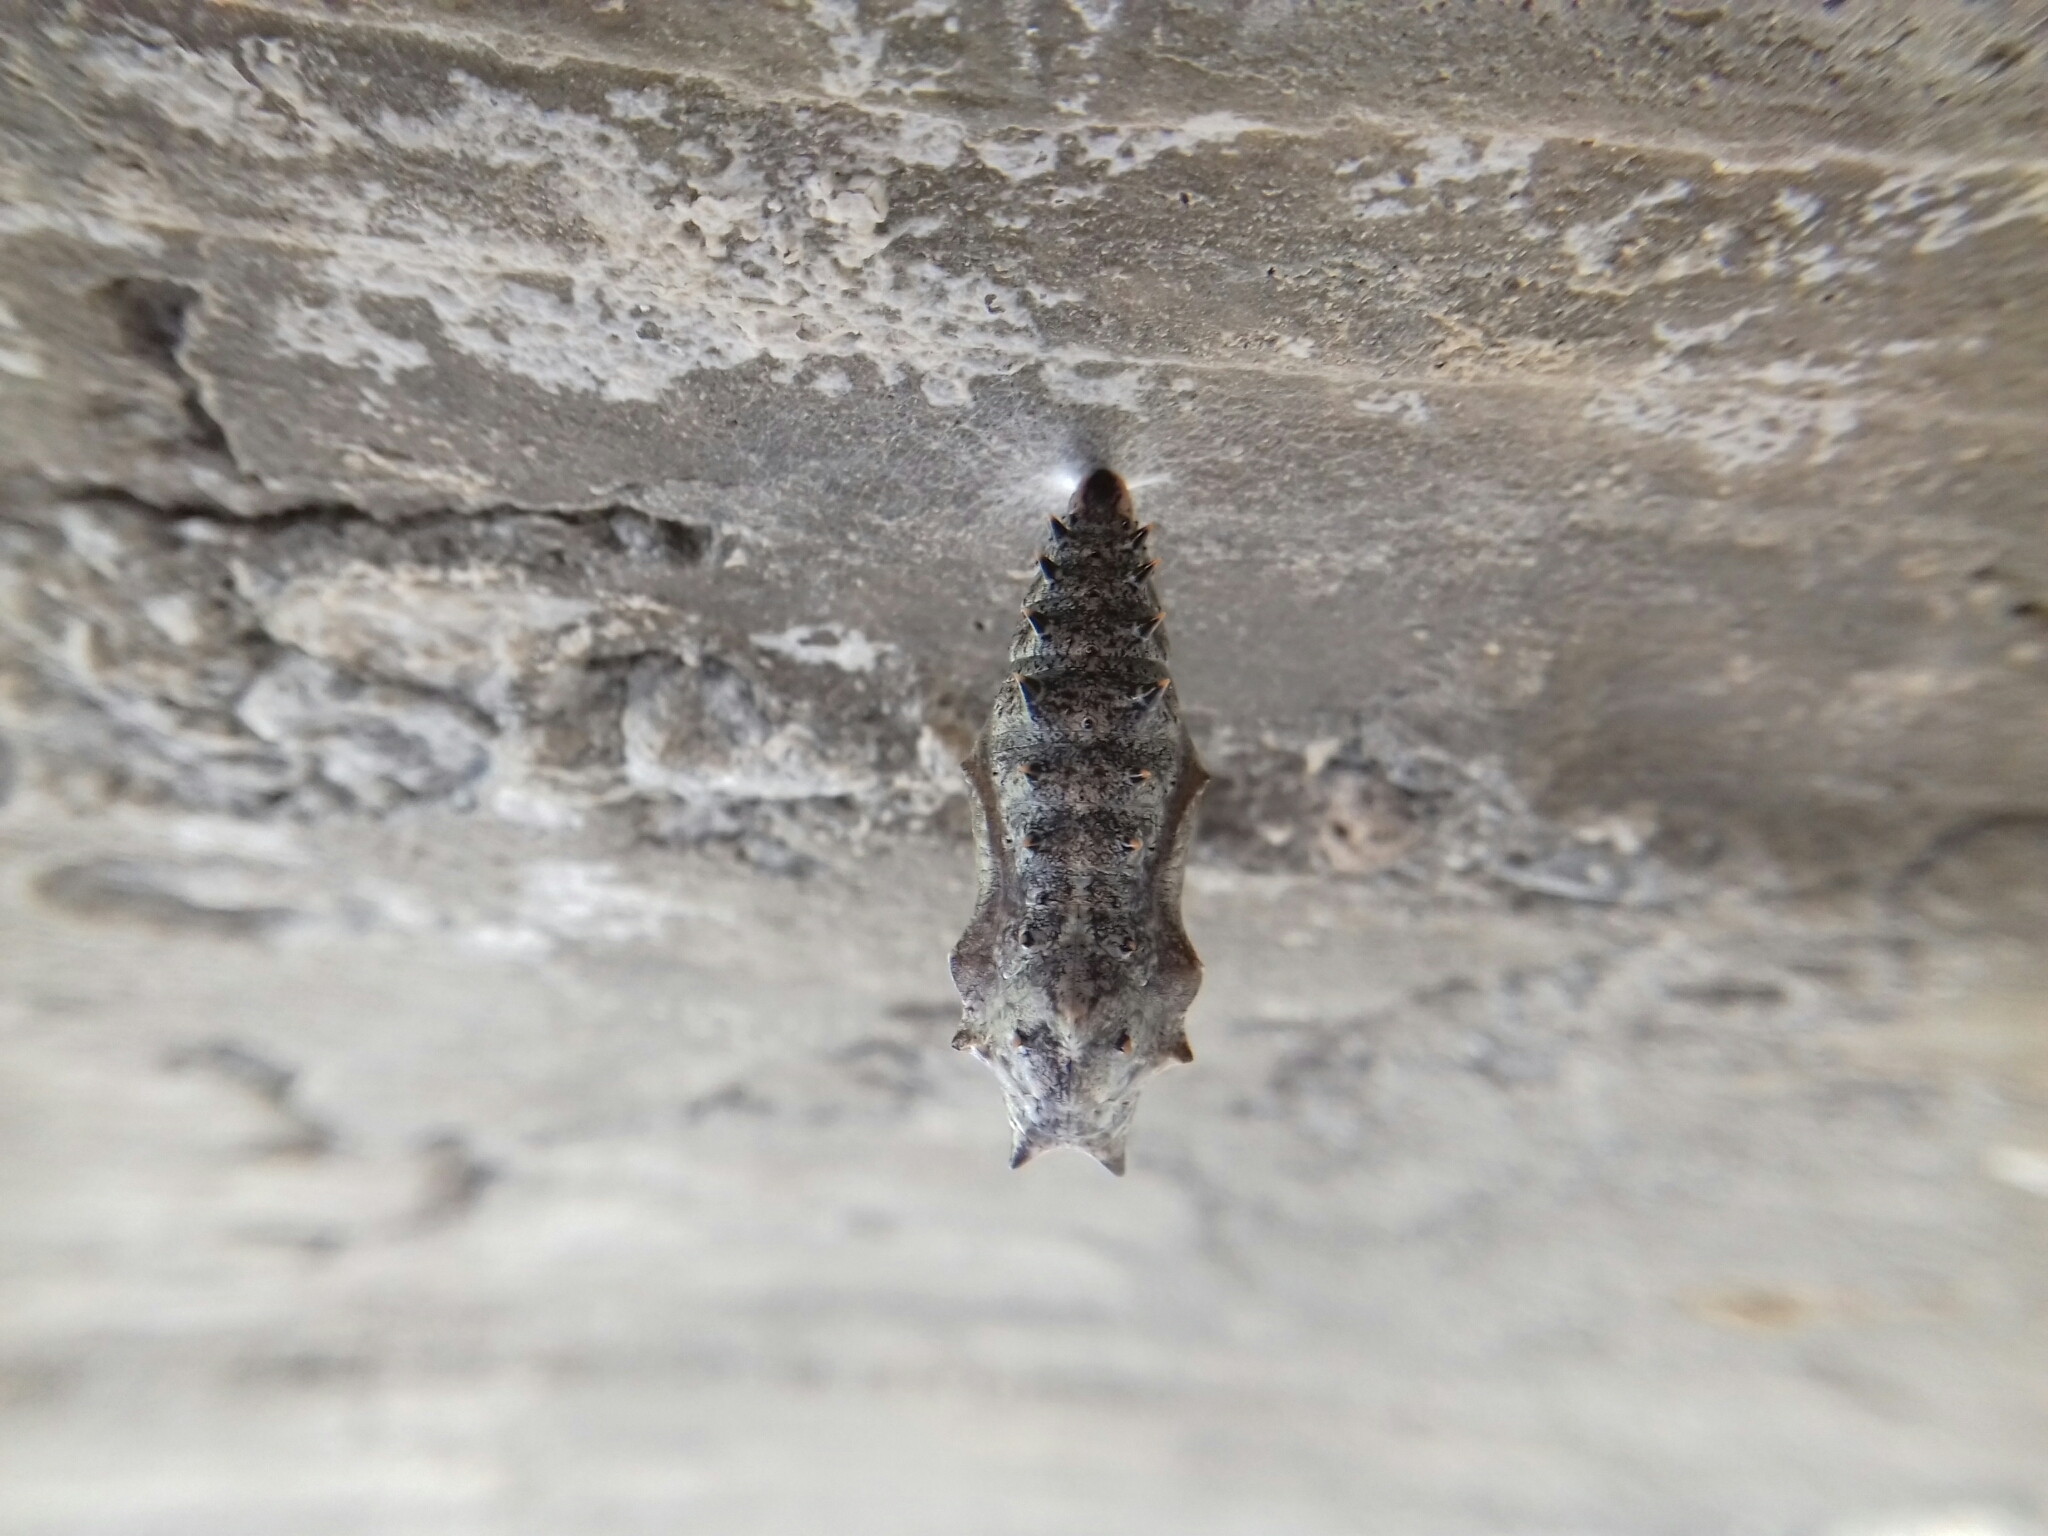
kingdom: Animalia
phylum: Arthropoda
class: Insecta
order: Lepidoptera
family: Nymphalidae
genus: Nymphalis
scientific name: Nymphalis antiopa
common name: Camberwell beauty
